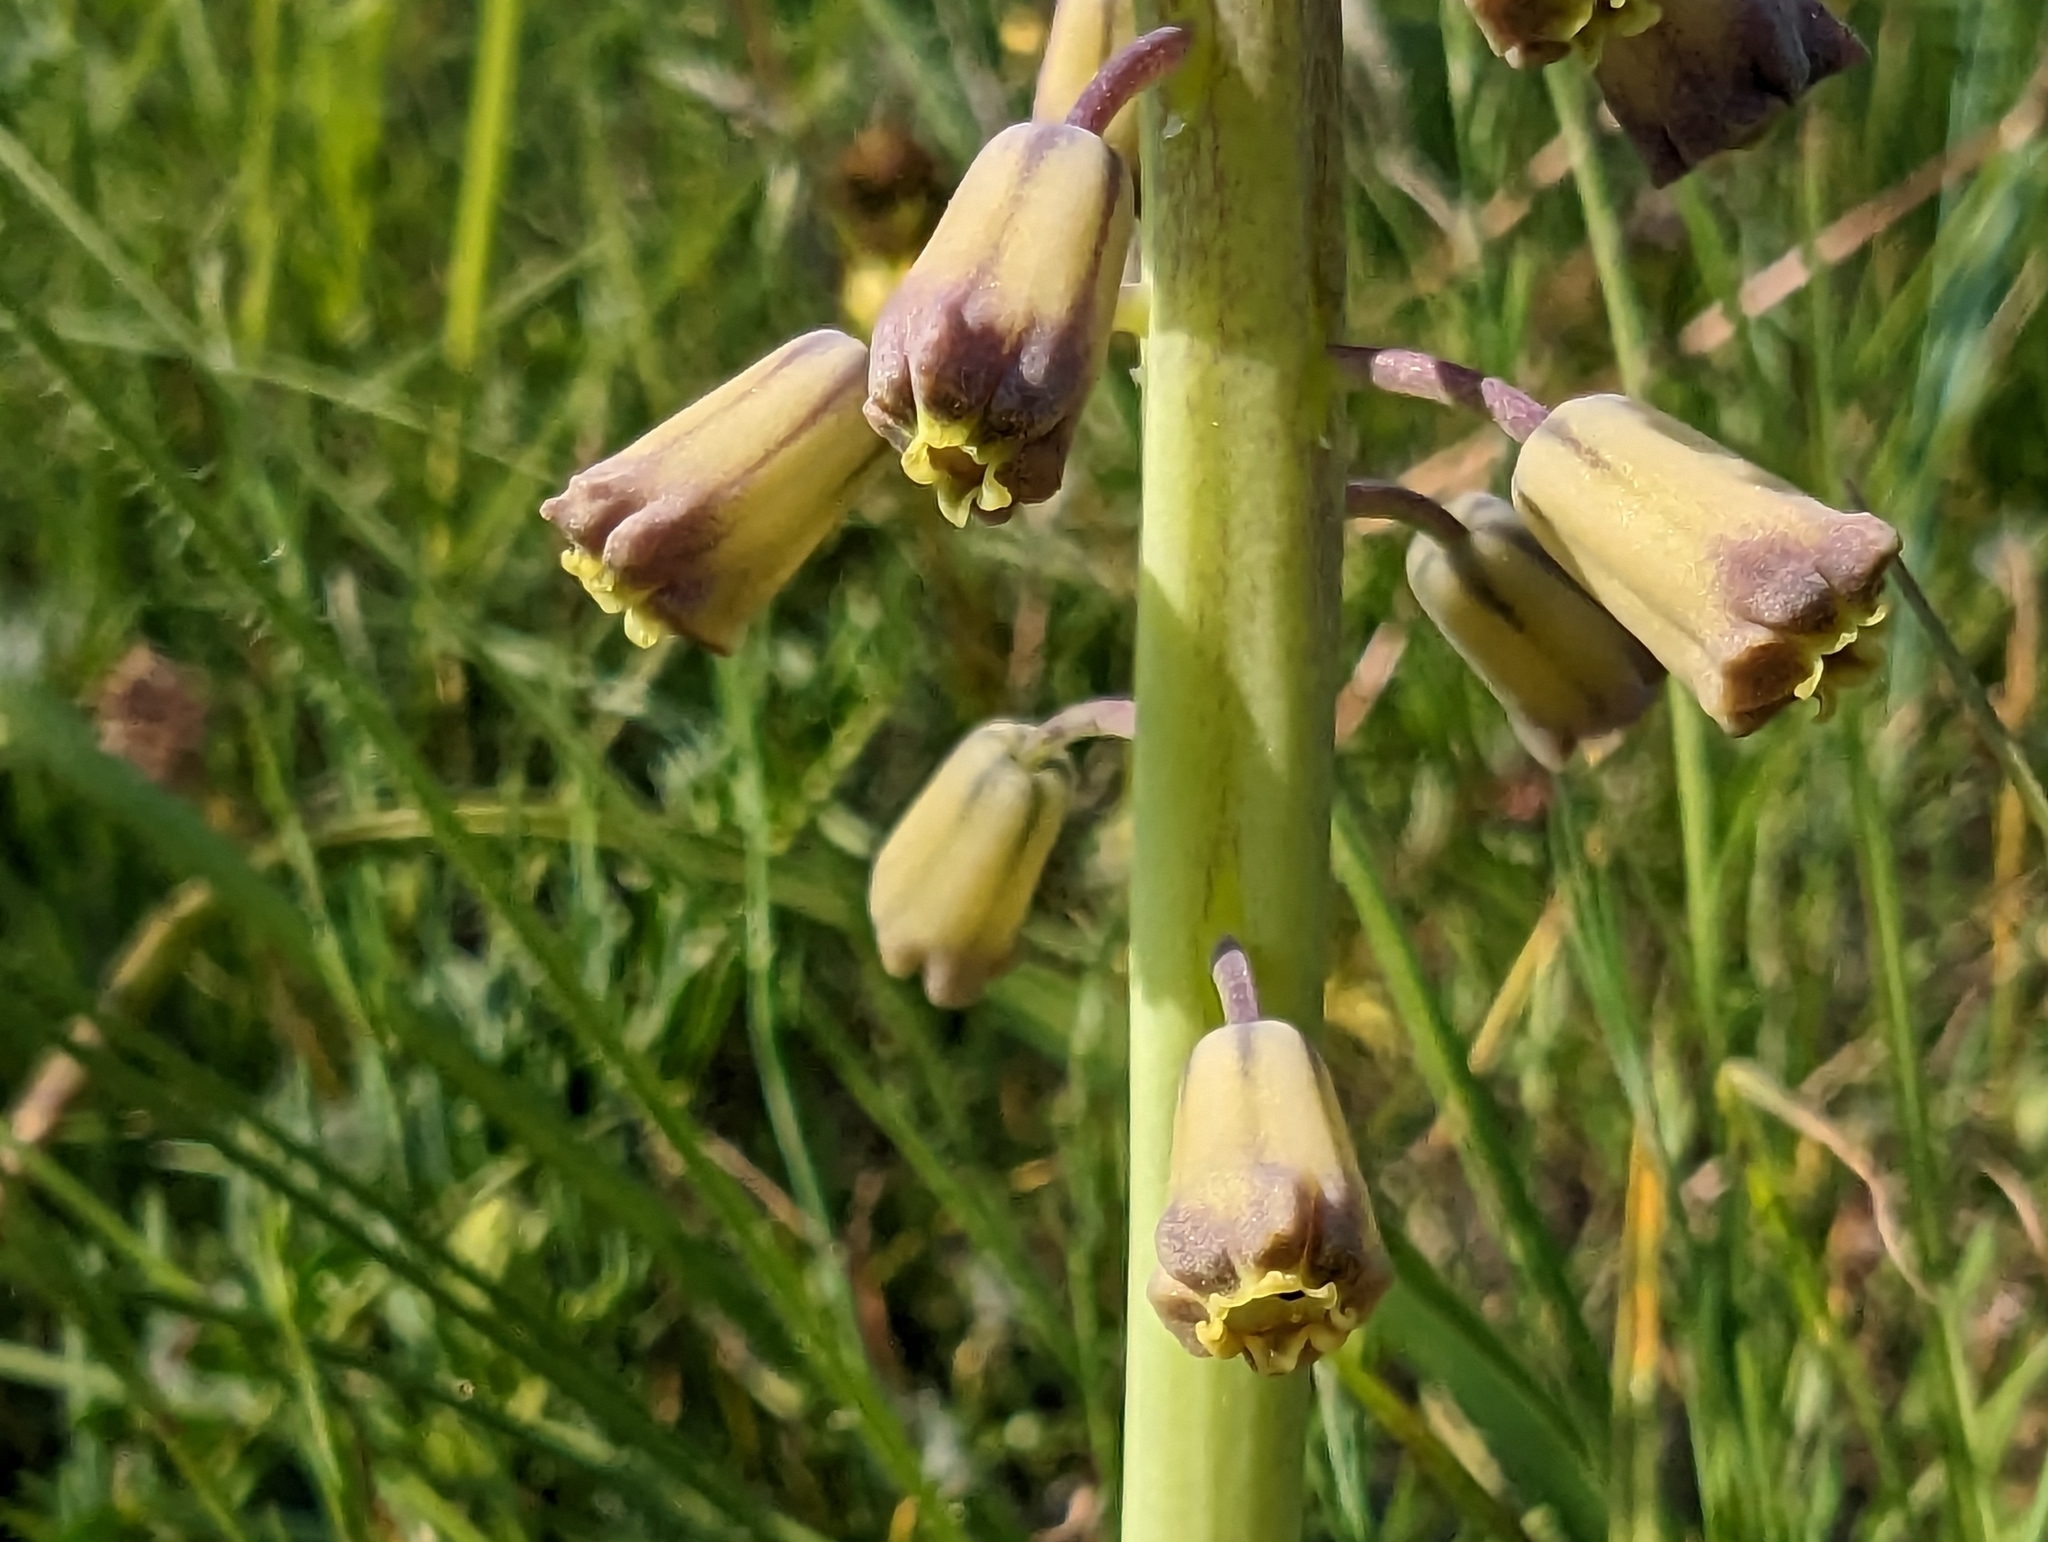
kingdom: Plantae
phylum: Tracheophyta
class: Liliopsida
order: Asparagales
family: Asparagaceae
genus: Muscari
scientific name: Muscari comosum
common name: Tassel hyacinth
